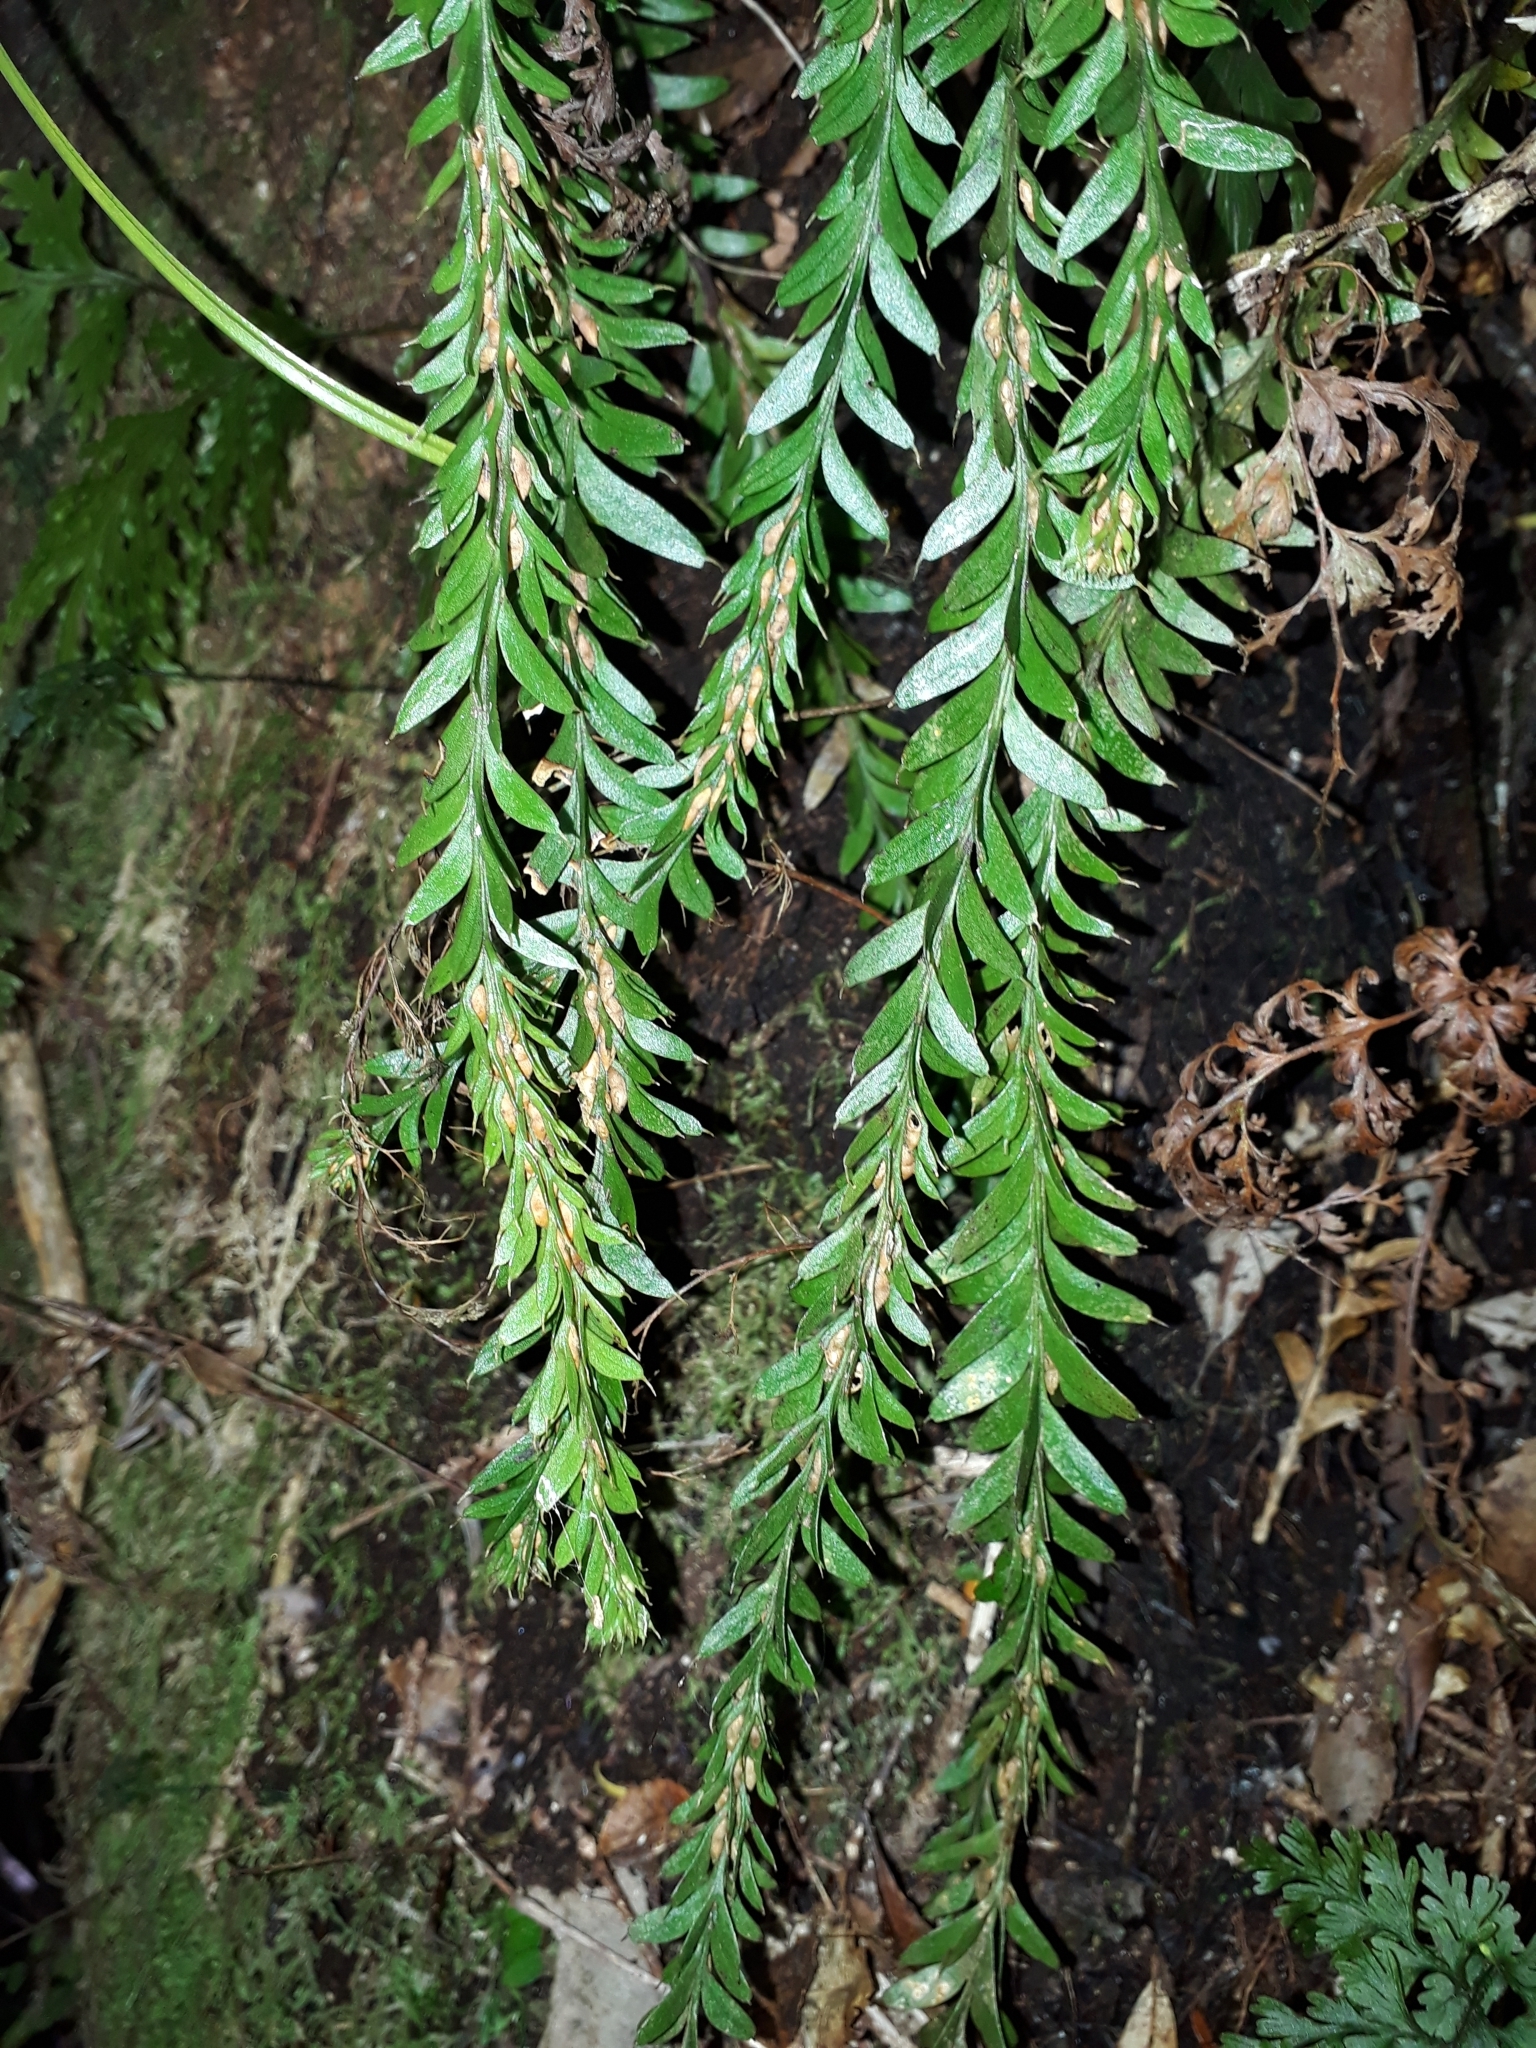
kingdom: Plantae
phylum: Tracheophyta
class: Polypodiopsida
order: Psilotales
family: Psilotaceae
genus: Tmesipteris
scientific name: Tmesipteris tannensis
